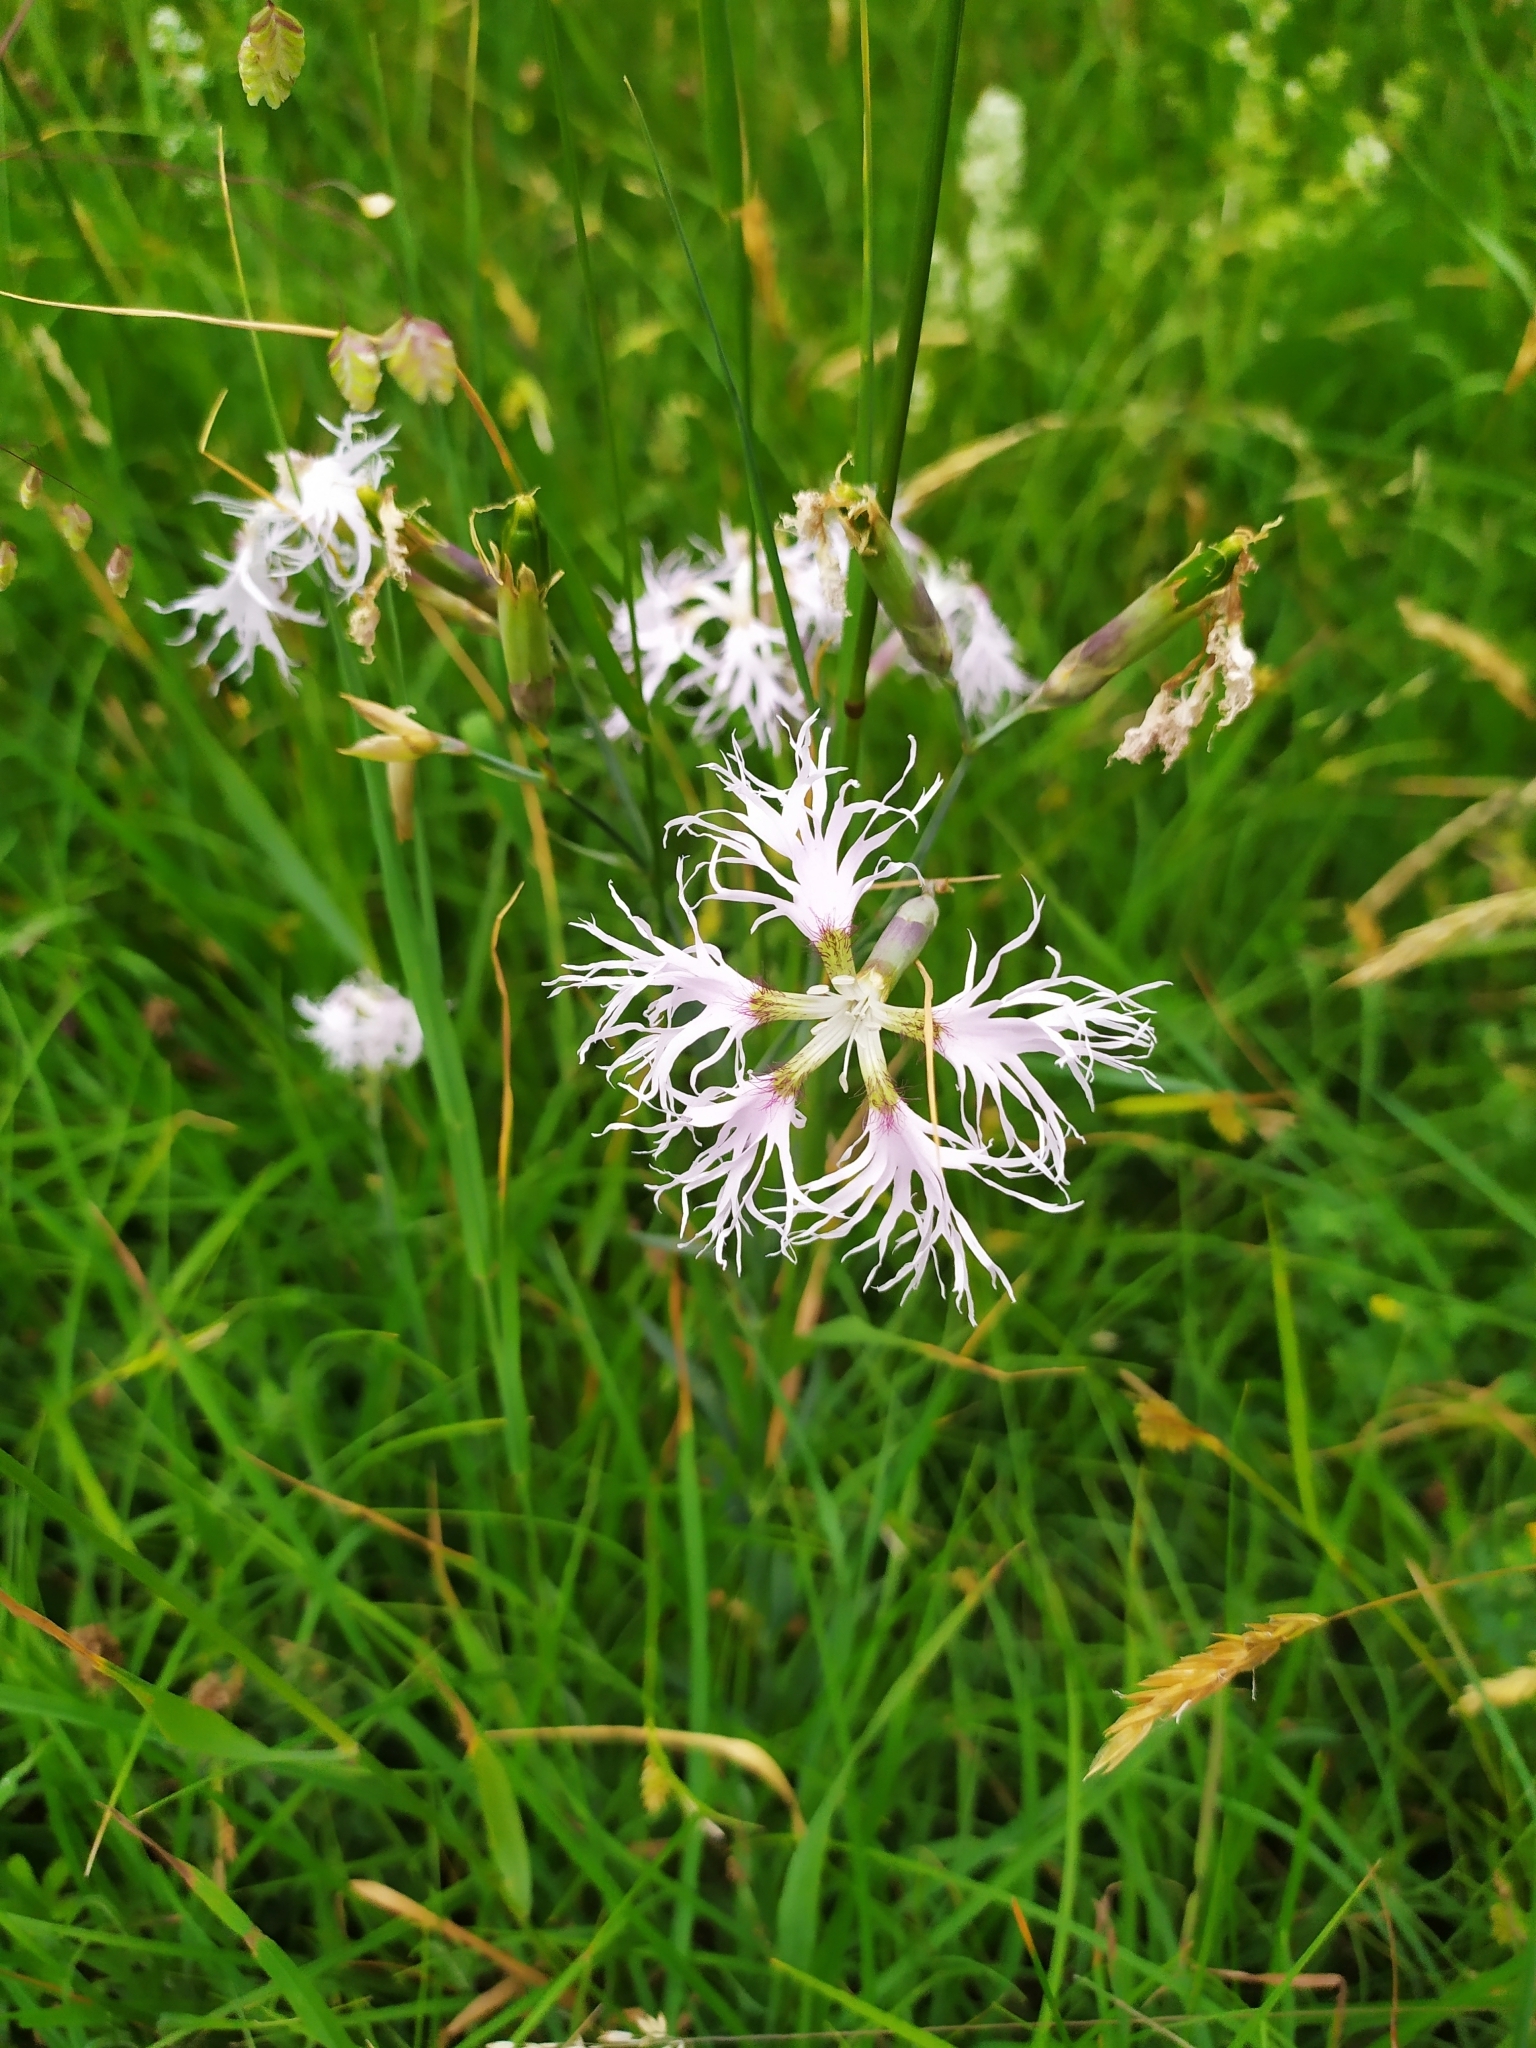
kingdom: Plantae
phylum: Tracheophyta
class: Magnoliopsida
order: Caryophyllales
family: Caryophyllaceae
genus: Dianthus
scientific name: Dianthus superbus
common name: Fringed pink
